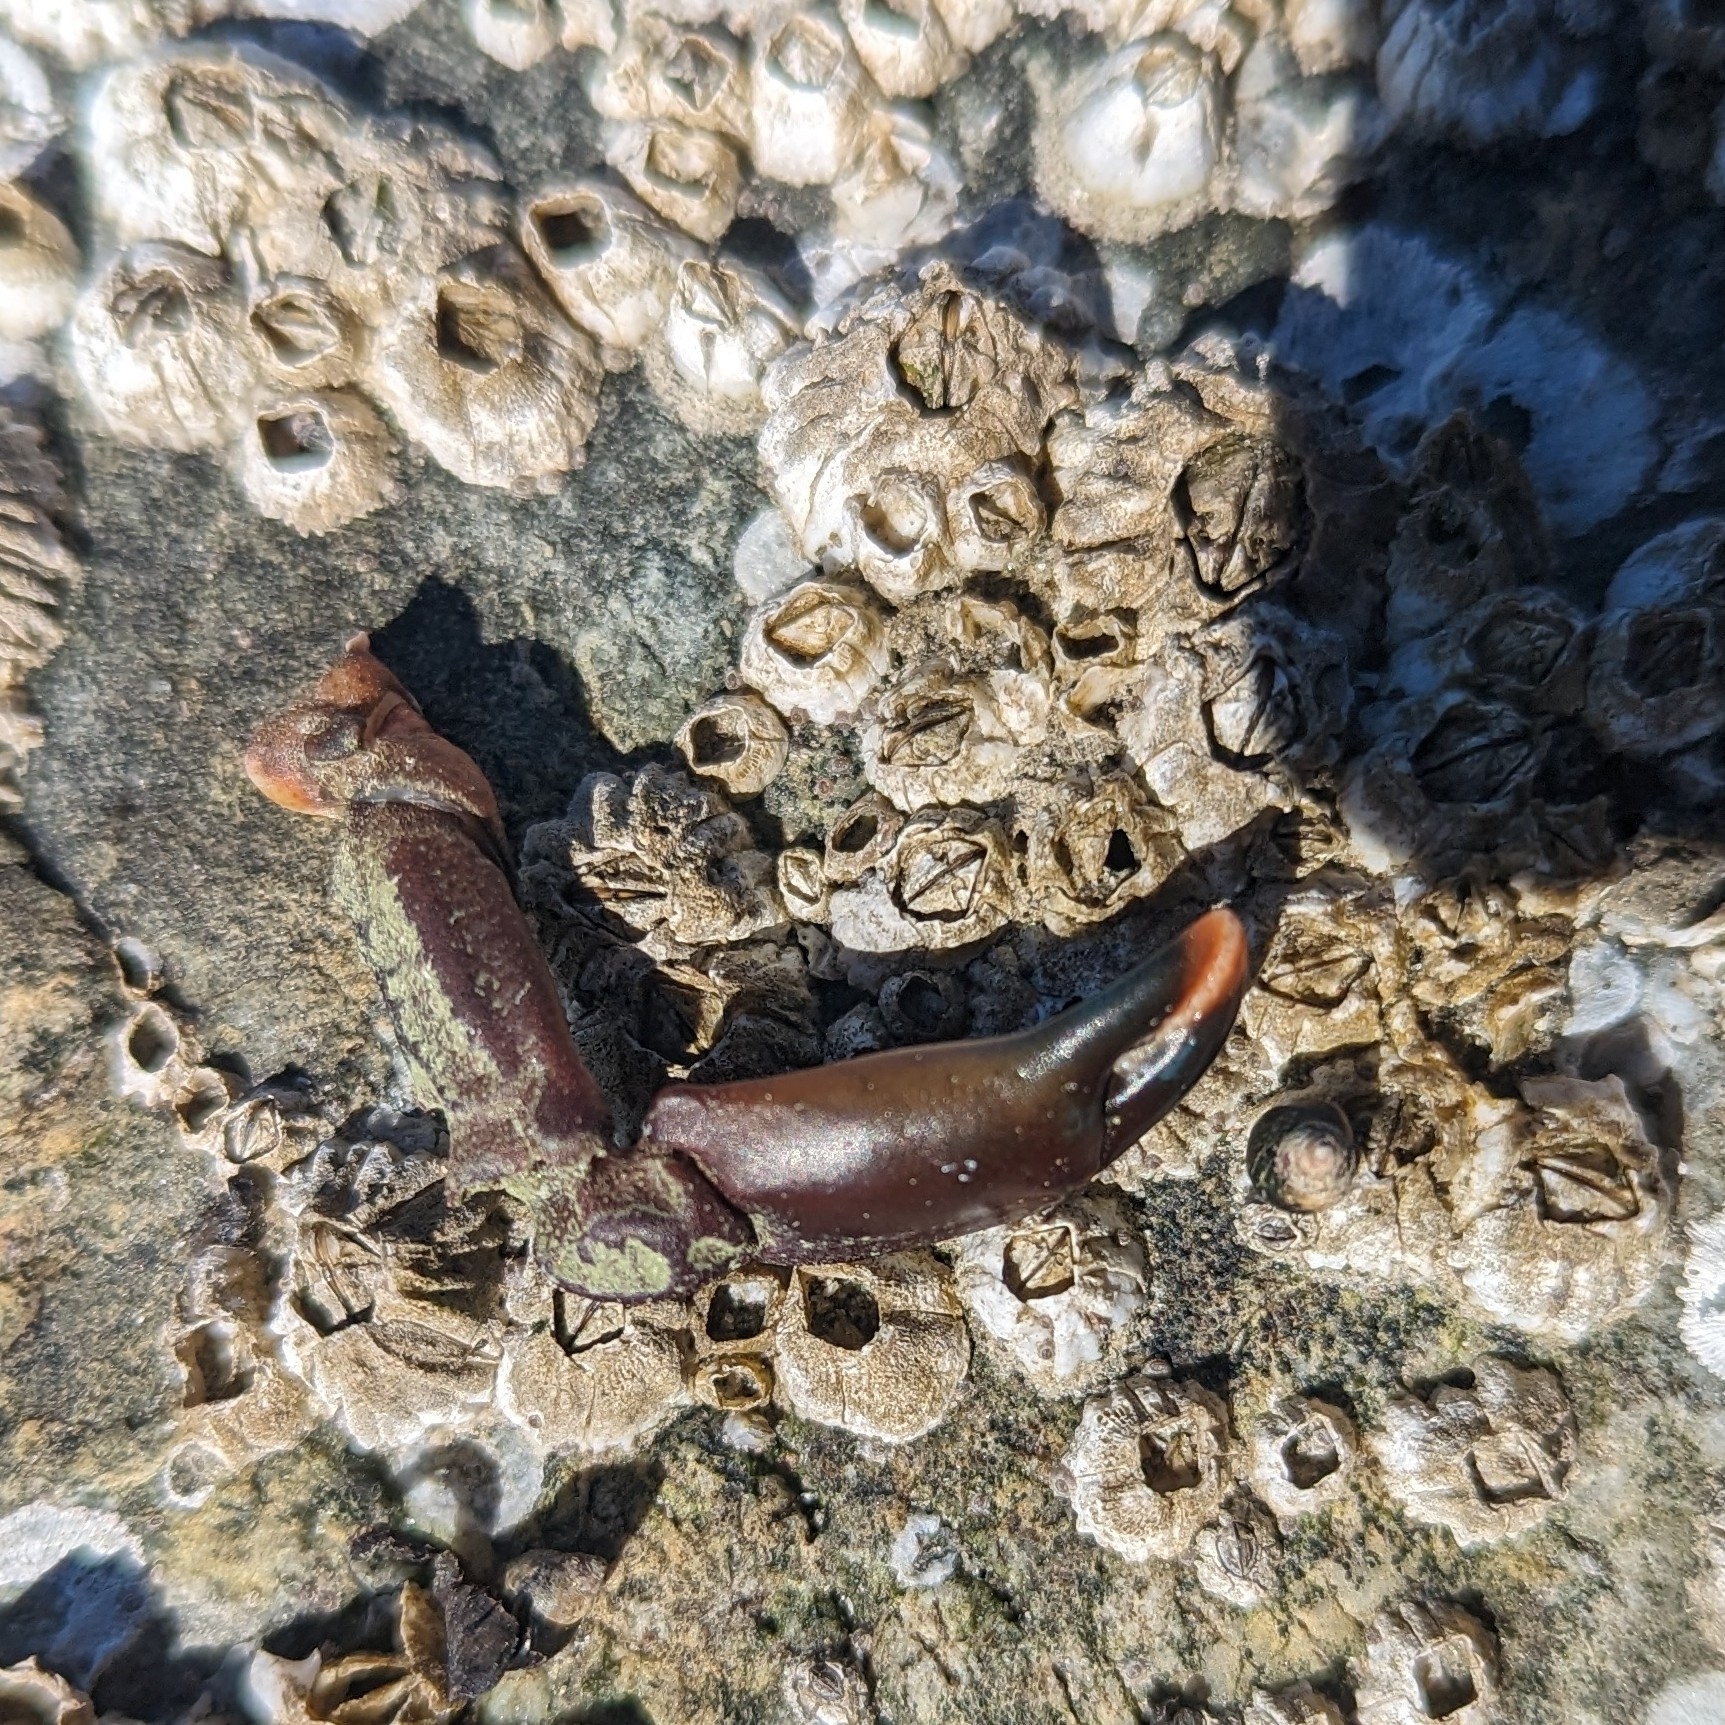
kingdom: Animalia
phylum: Arthropoda
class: Malacostraca
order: Decapoda
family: Epialtidae
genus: Pugettia
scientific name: Pugettia gracilis
